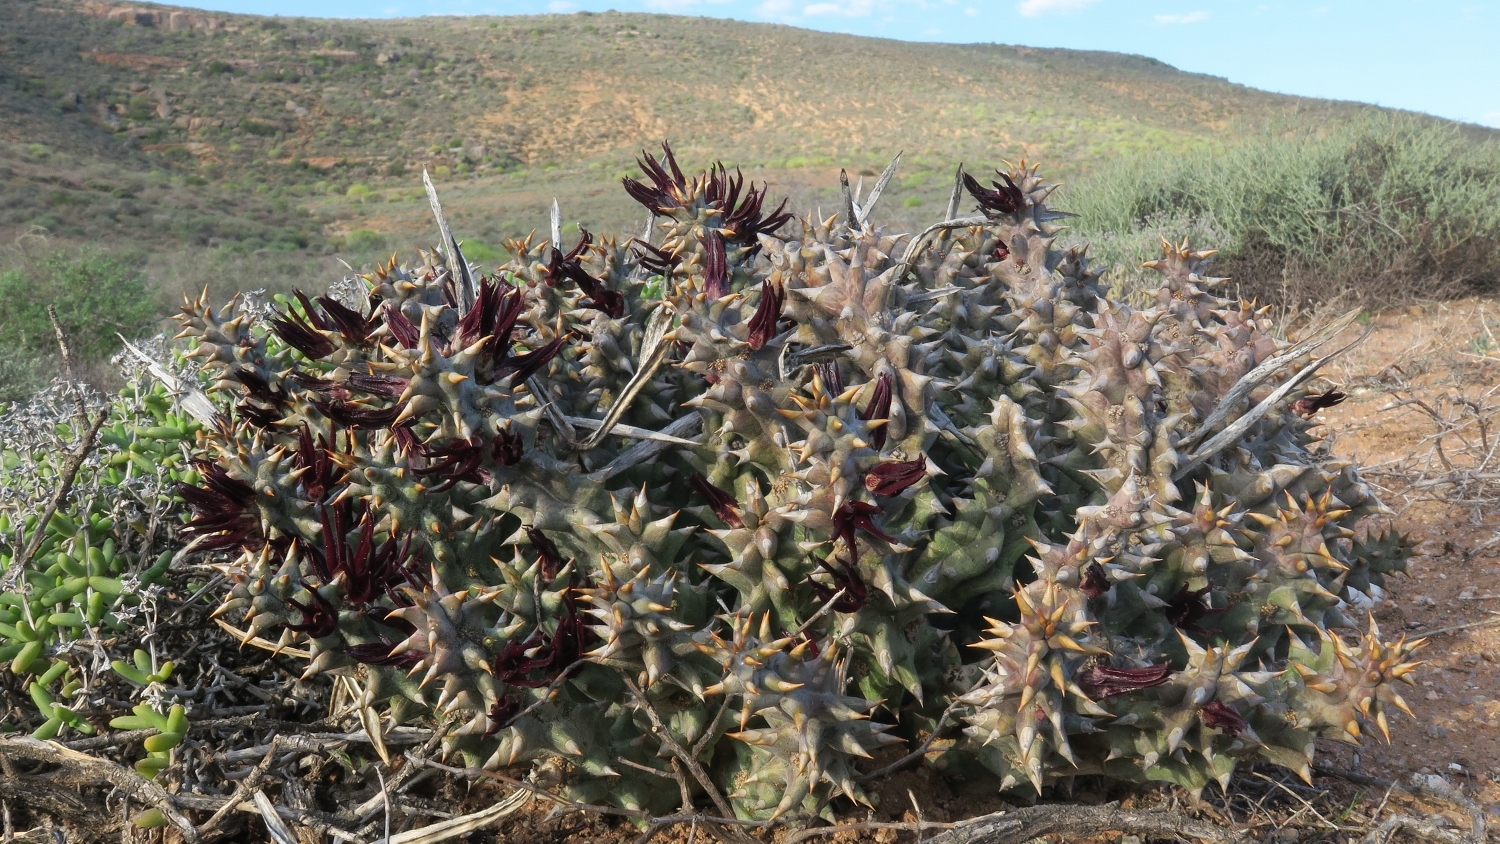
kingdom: Plantae
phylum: Tracheophyta
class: Magnoliopsida
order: Gentianales
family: Apocynaceae
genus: Ceropegia
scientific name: Ceropegia mammillaris
